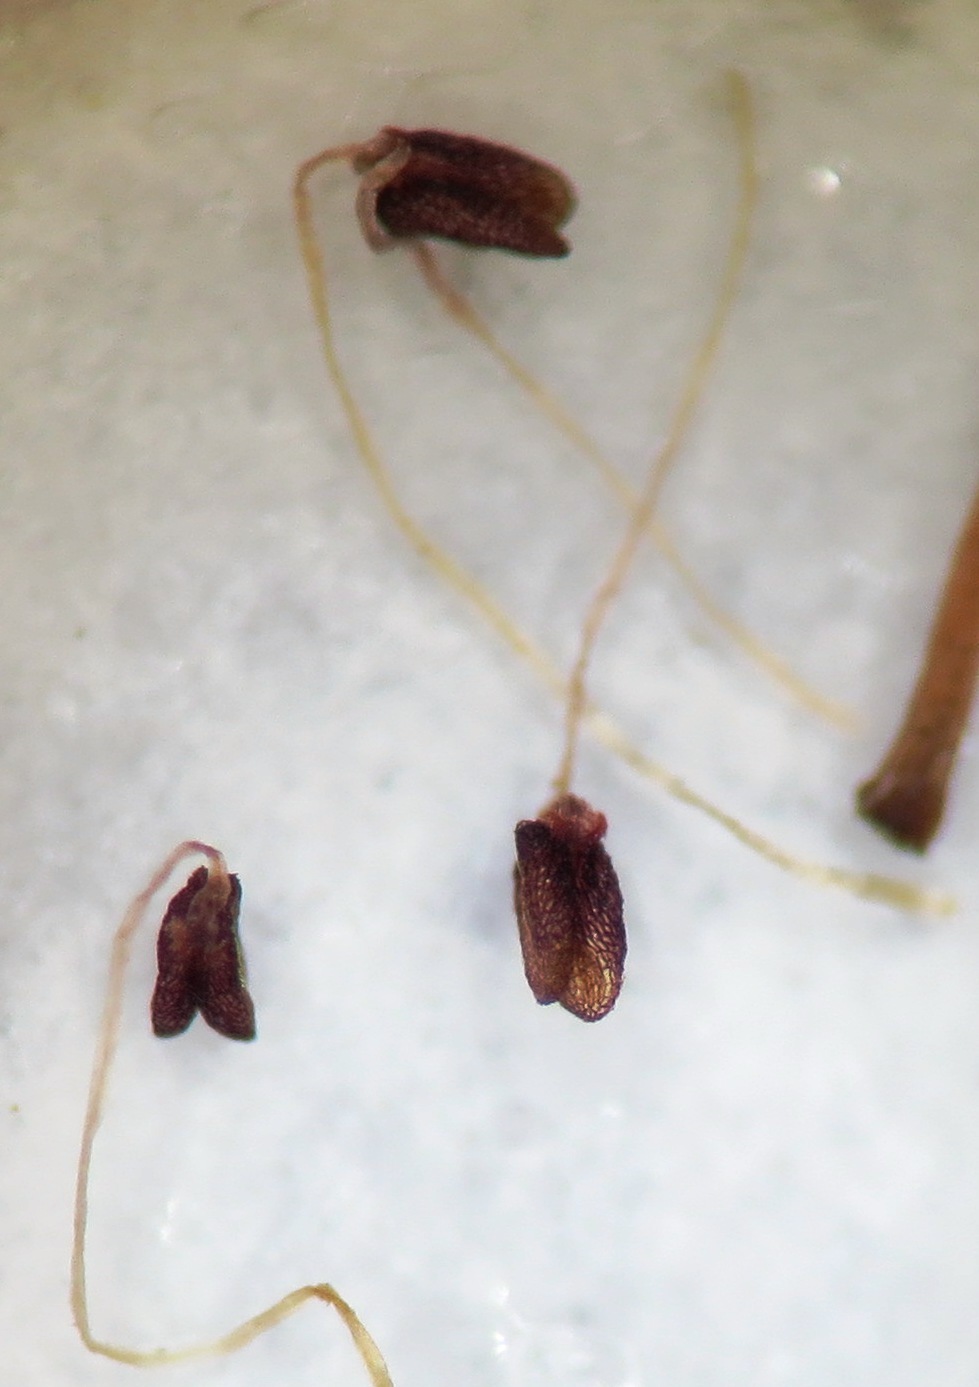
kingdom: Plantae
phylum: Tracheophyta
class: Magnoliopsida
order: Ericales
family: Ericaceae
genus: Erica
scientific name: Erica
